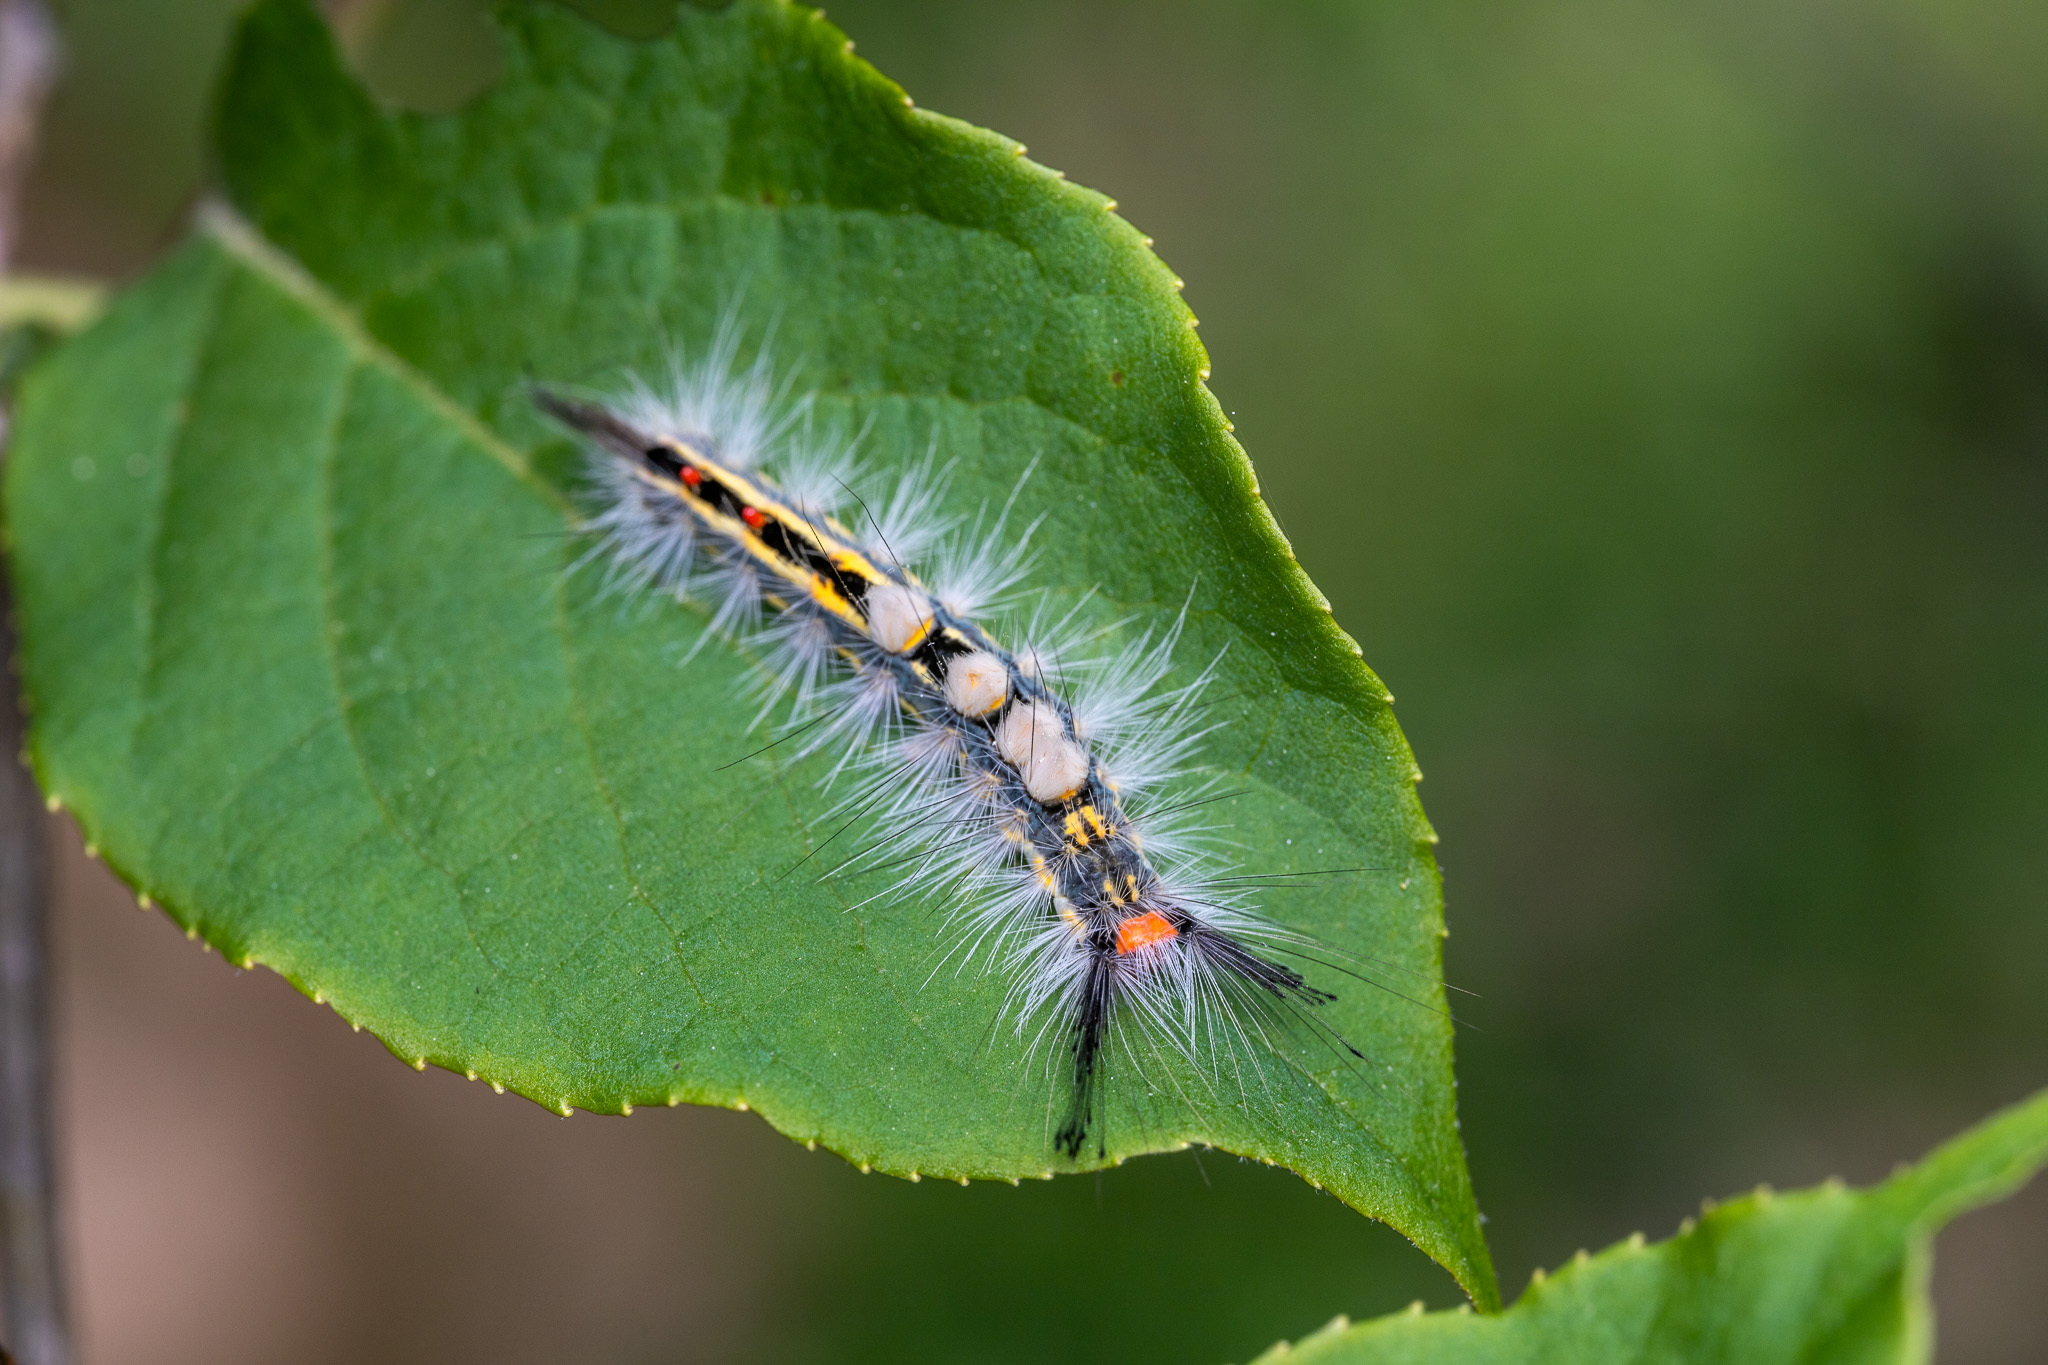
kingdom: Animalia
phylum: Arthropoda
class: Insecta
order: Lepidoptera
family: Erebidae
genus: Orgyia
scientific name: Orgyia leucostigma
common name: White-marked tussock moth
